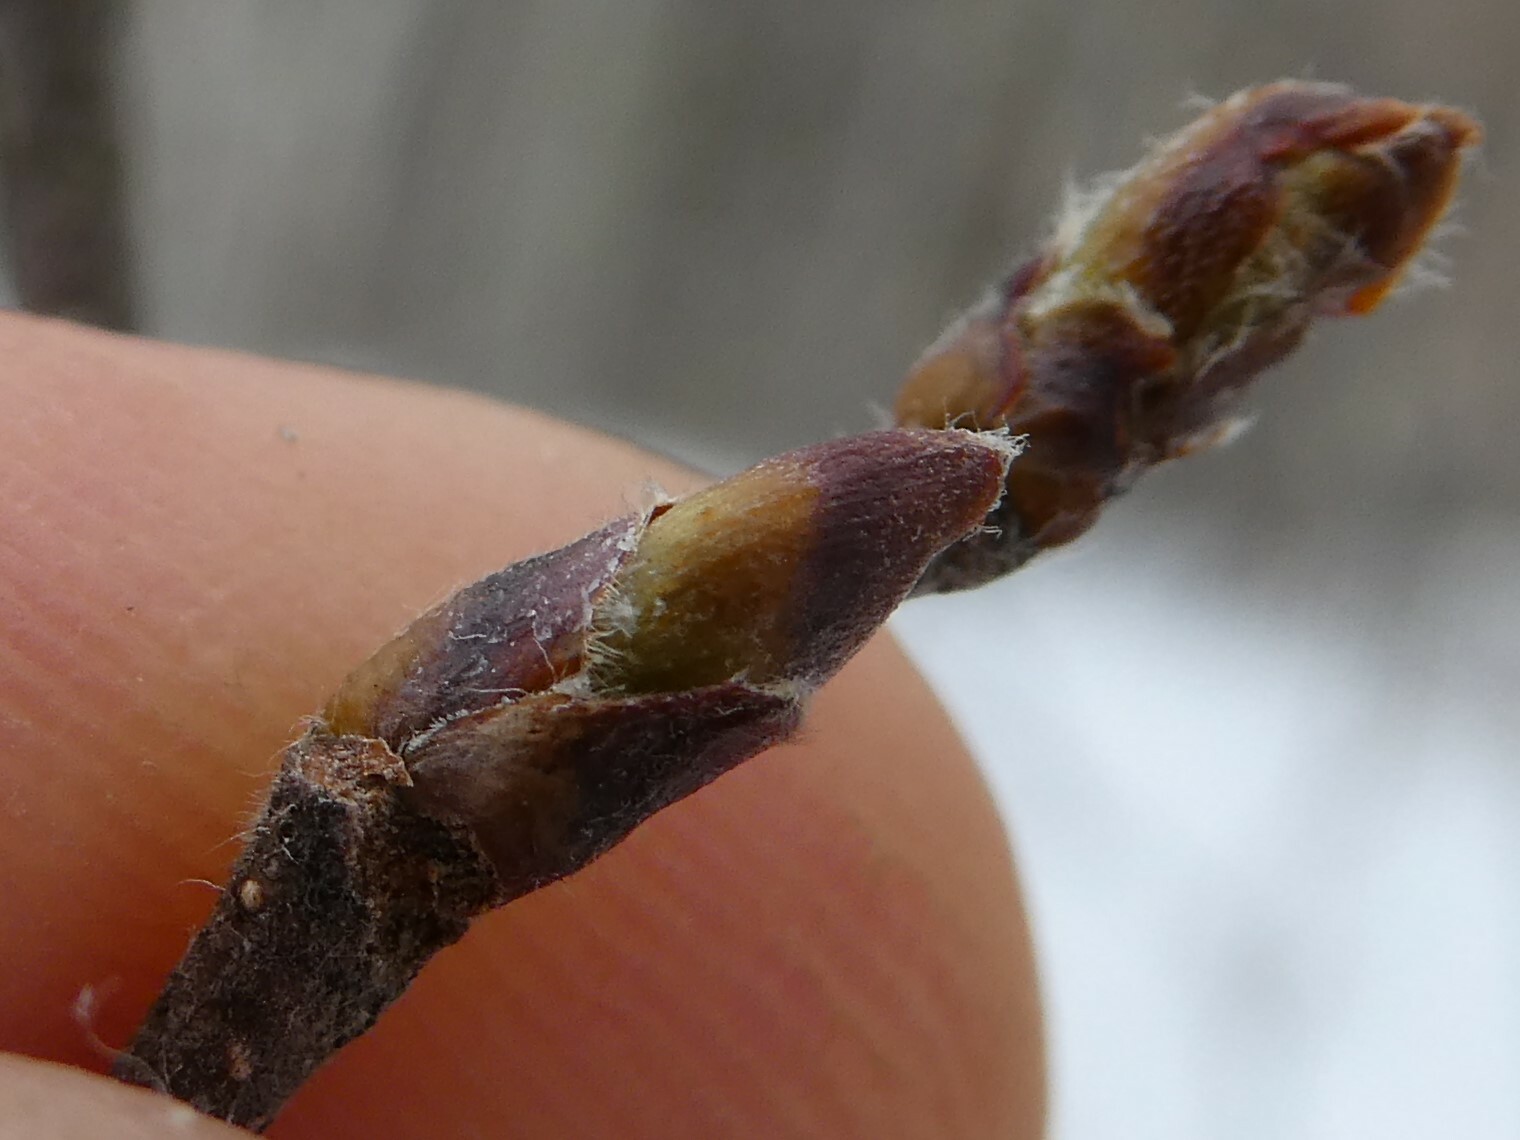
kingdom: Plantae
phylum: Tracheophyta
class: Magnoliopsida
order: Fagales
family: Betulaceae
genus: Betula
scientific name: Betula papyrifera
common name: Paper birch
